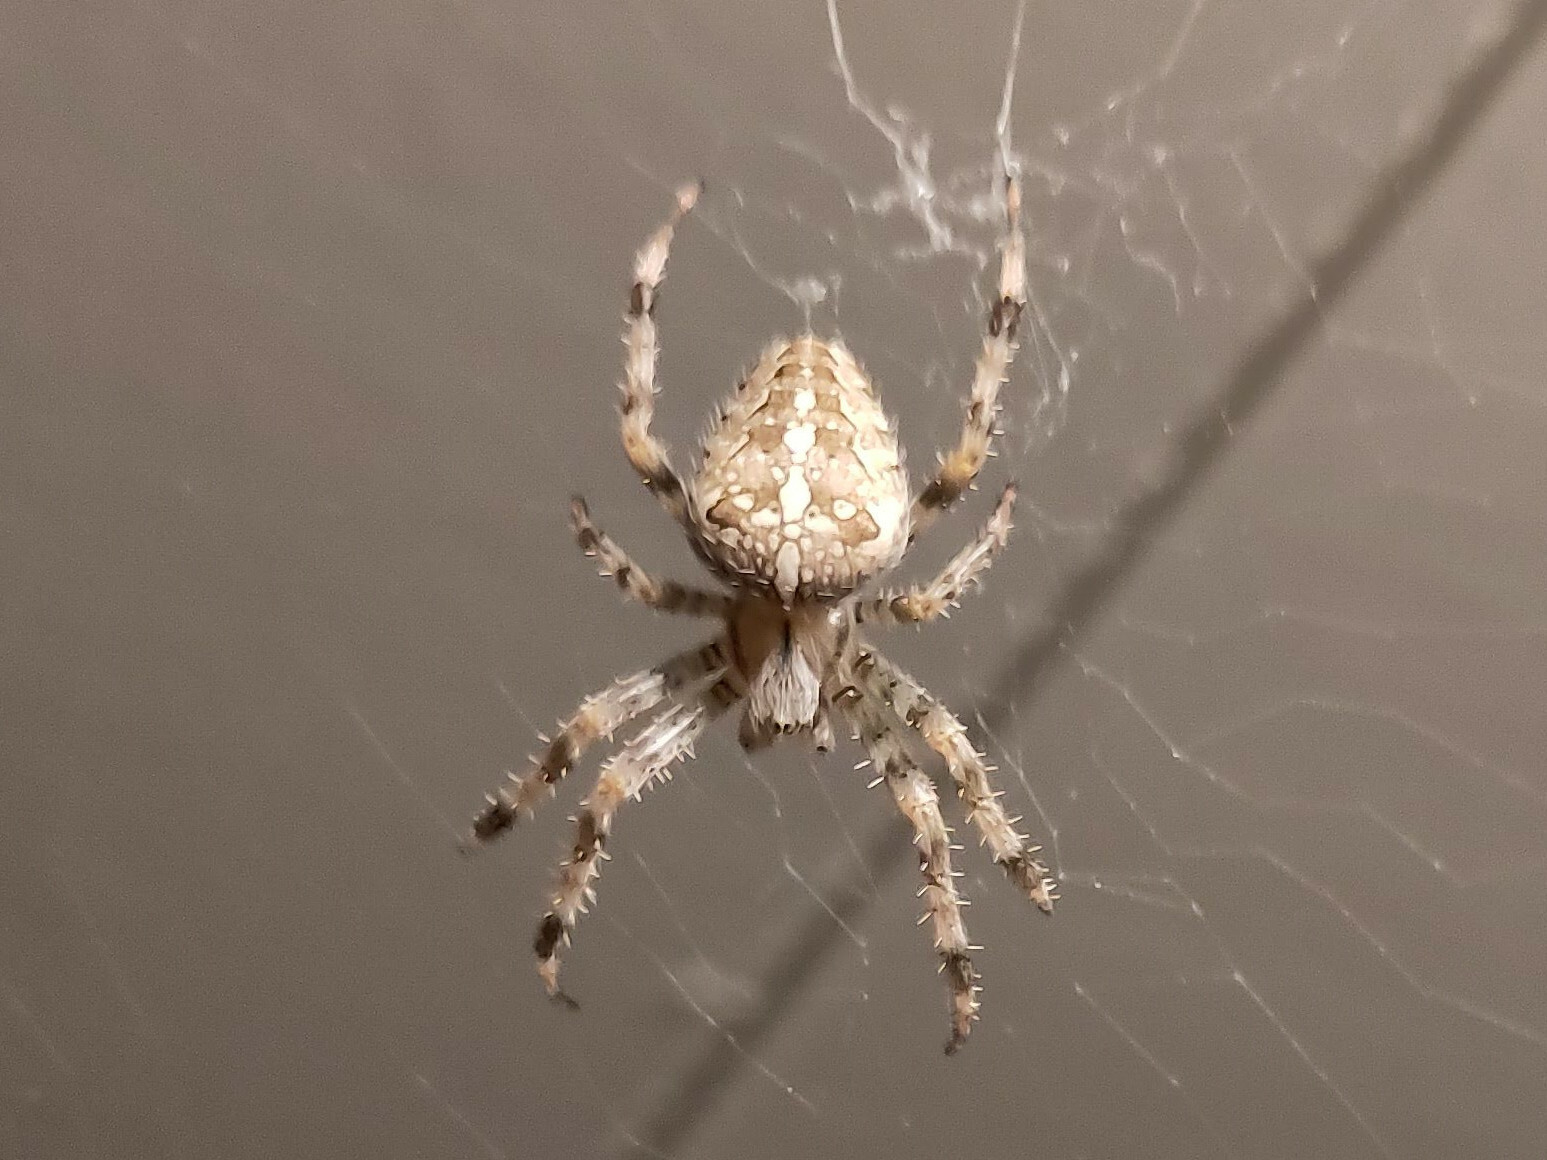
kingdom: Animalia
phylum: Arthropoda
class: Arachnida
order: Araneae
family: Araneidae
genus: Araneus
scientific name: Araneus diadematus
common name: Cross orbweaver
